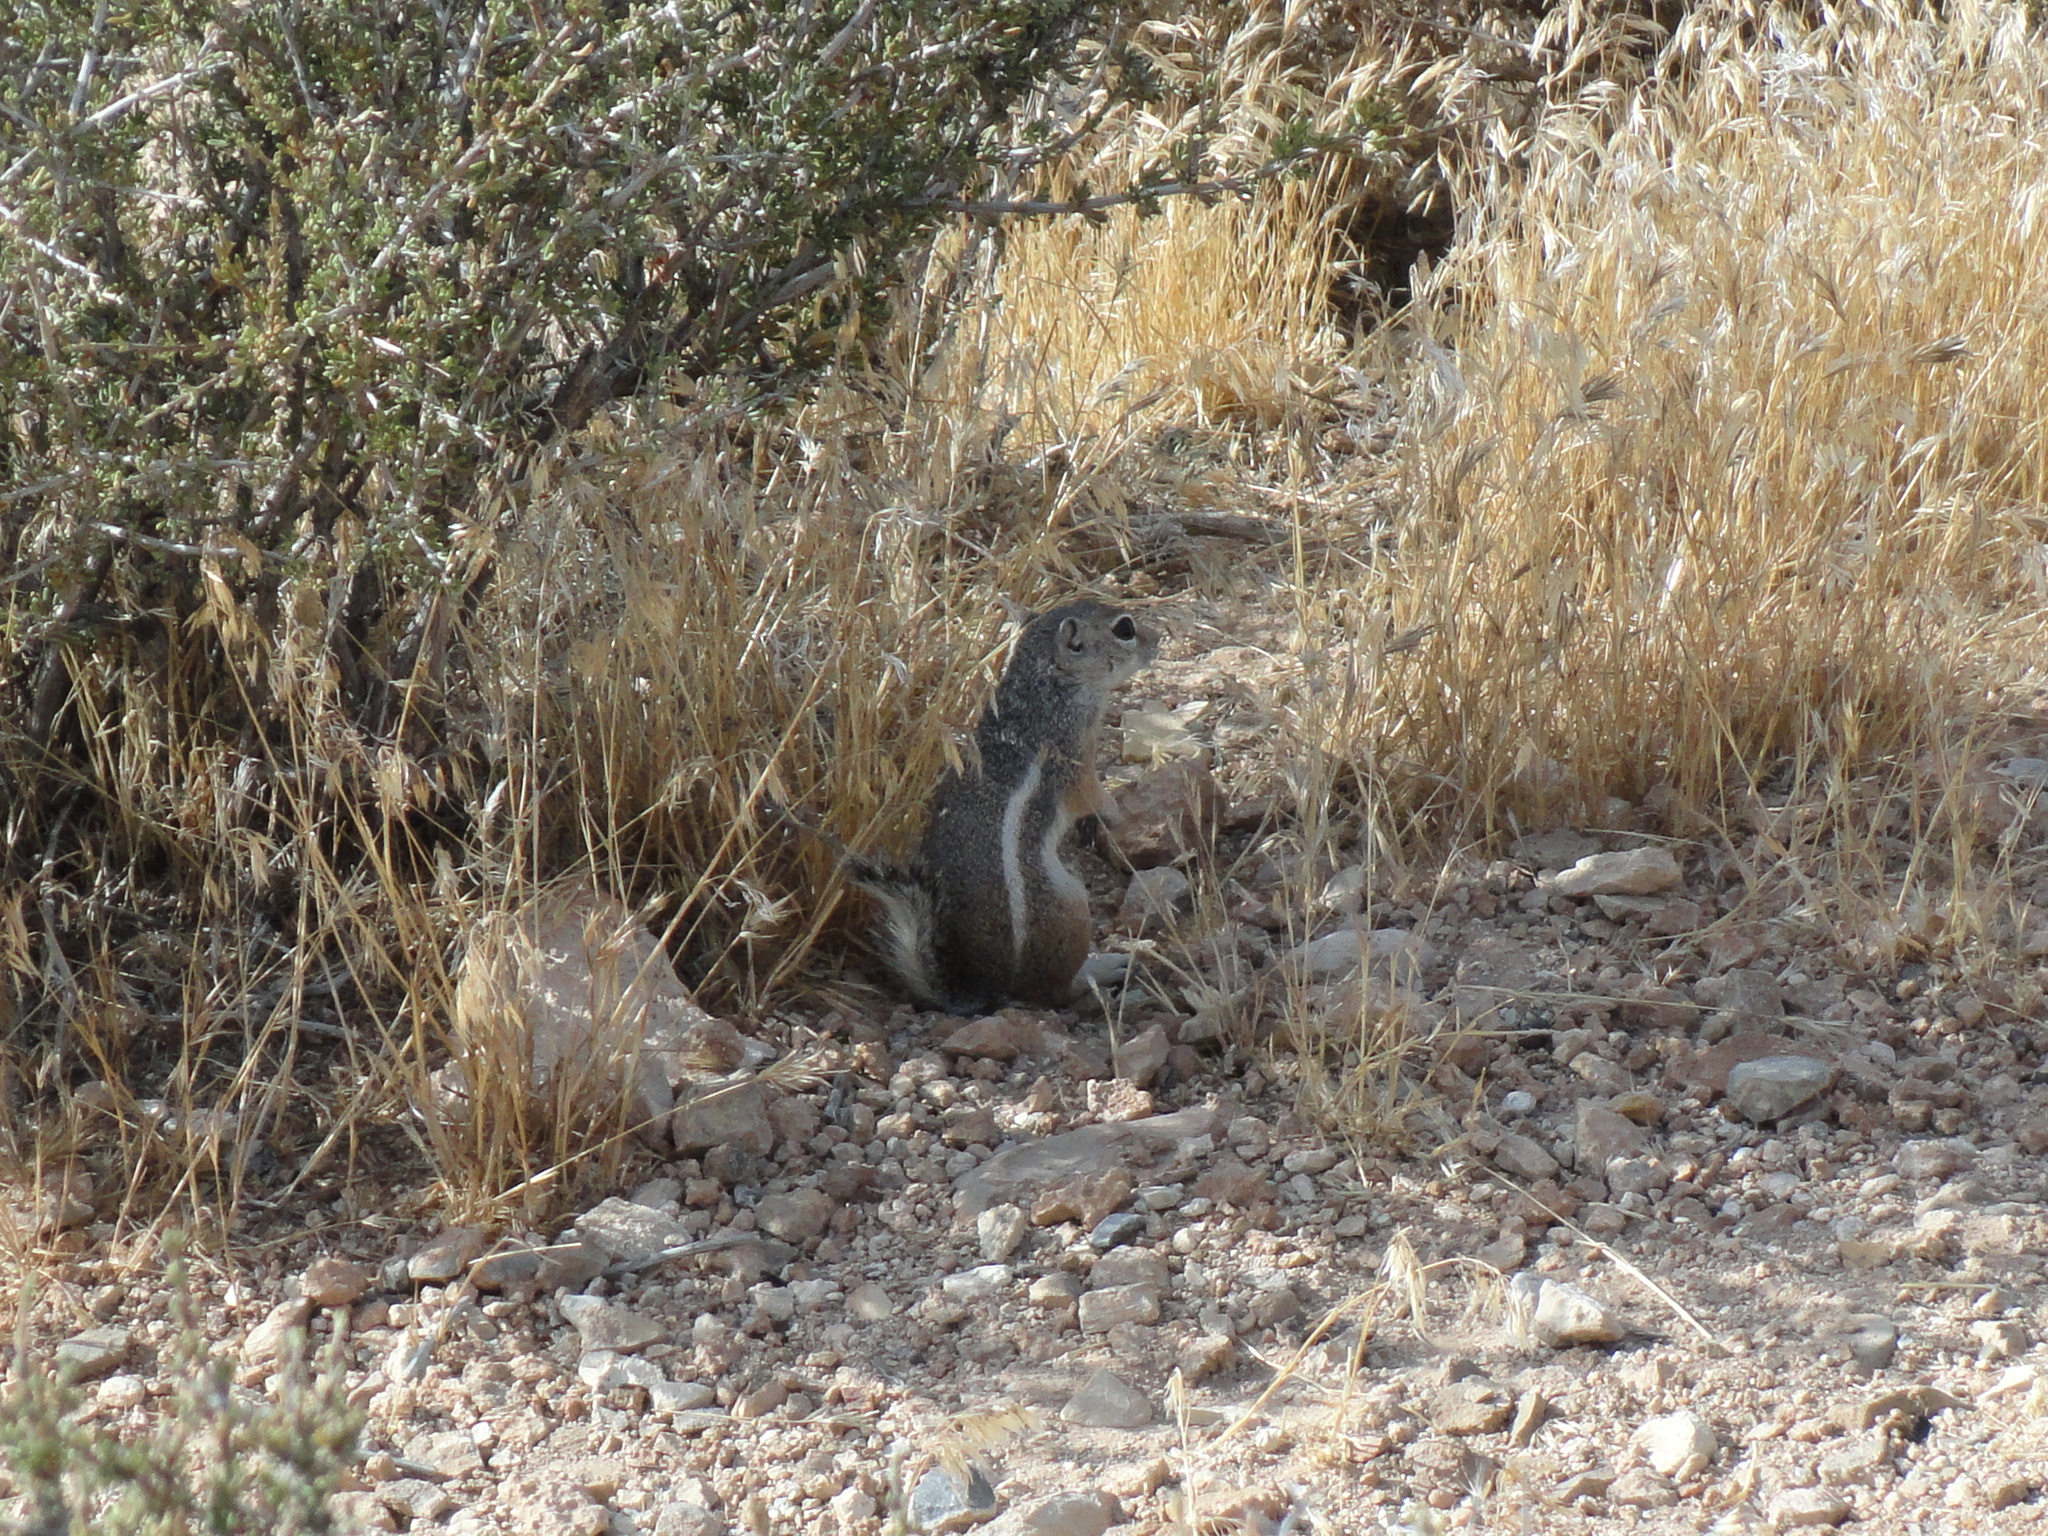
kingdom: Animalia
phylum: Chordata
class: Mammalia
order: Rodentia
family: Sciuridae
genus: Ammospermophilus
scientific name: Ammospermophilus leucurus
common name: White-tailed antelope squirrel
